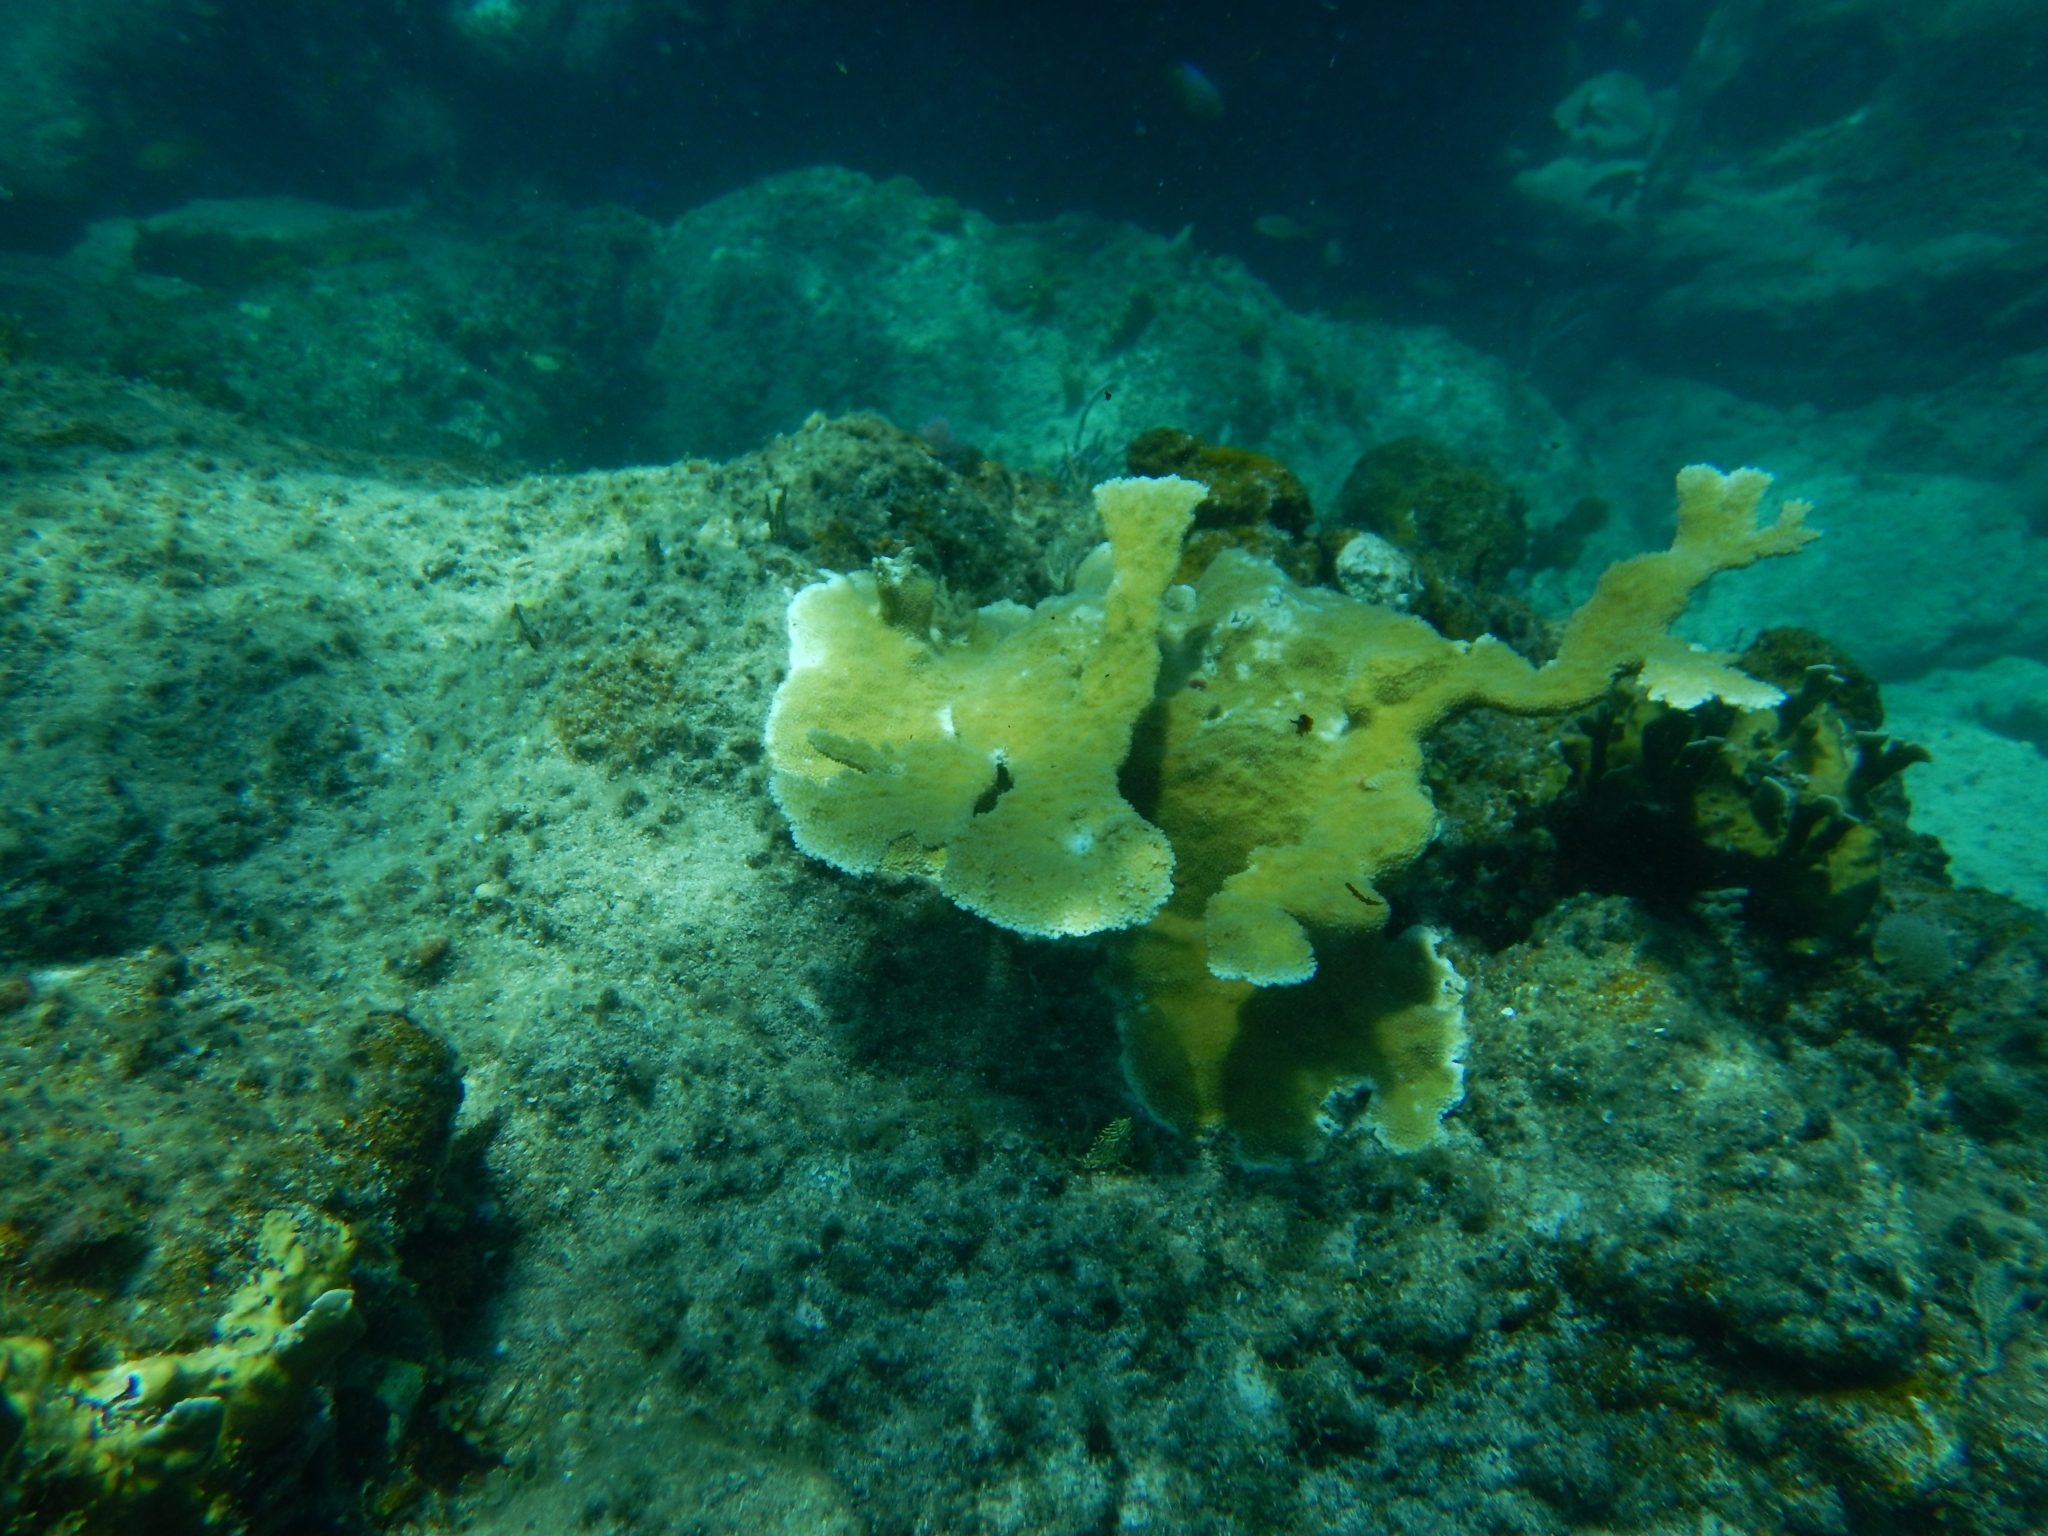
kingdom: Animalia
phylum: Cnidaria
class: Anthozoa
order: Scleractinia
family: Acroporidae
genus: Acropora
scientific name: Acropora palmata
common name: Elkhorn coral
